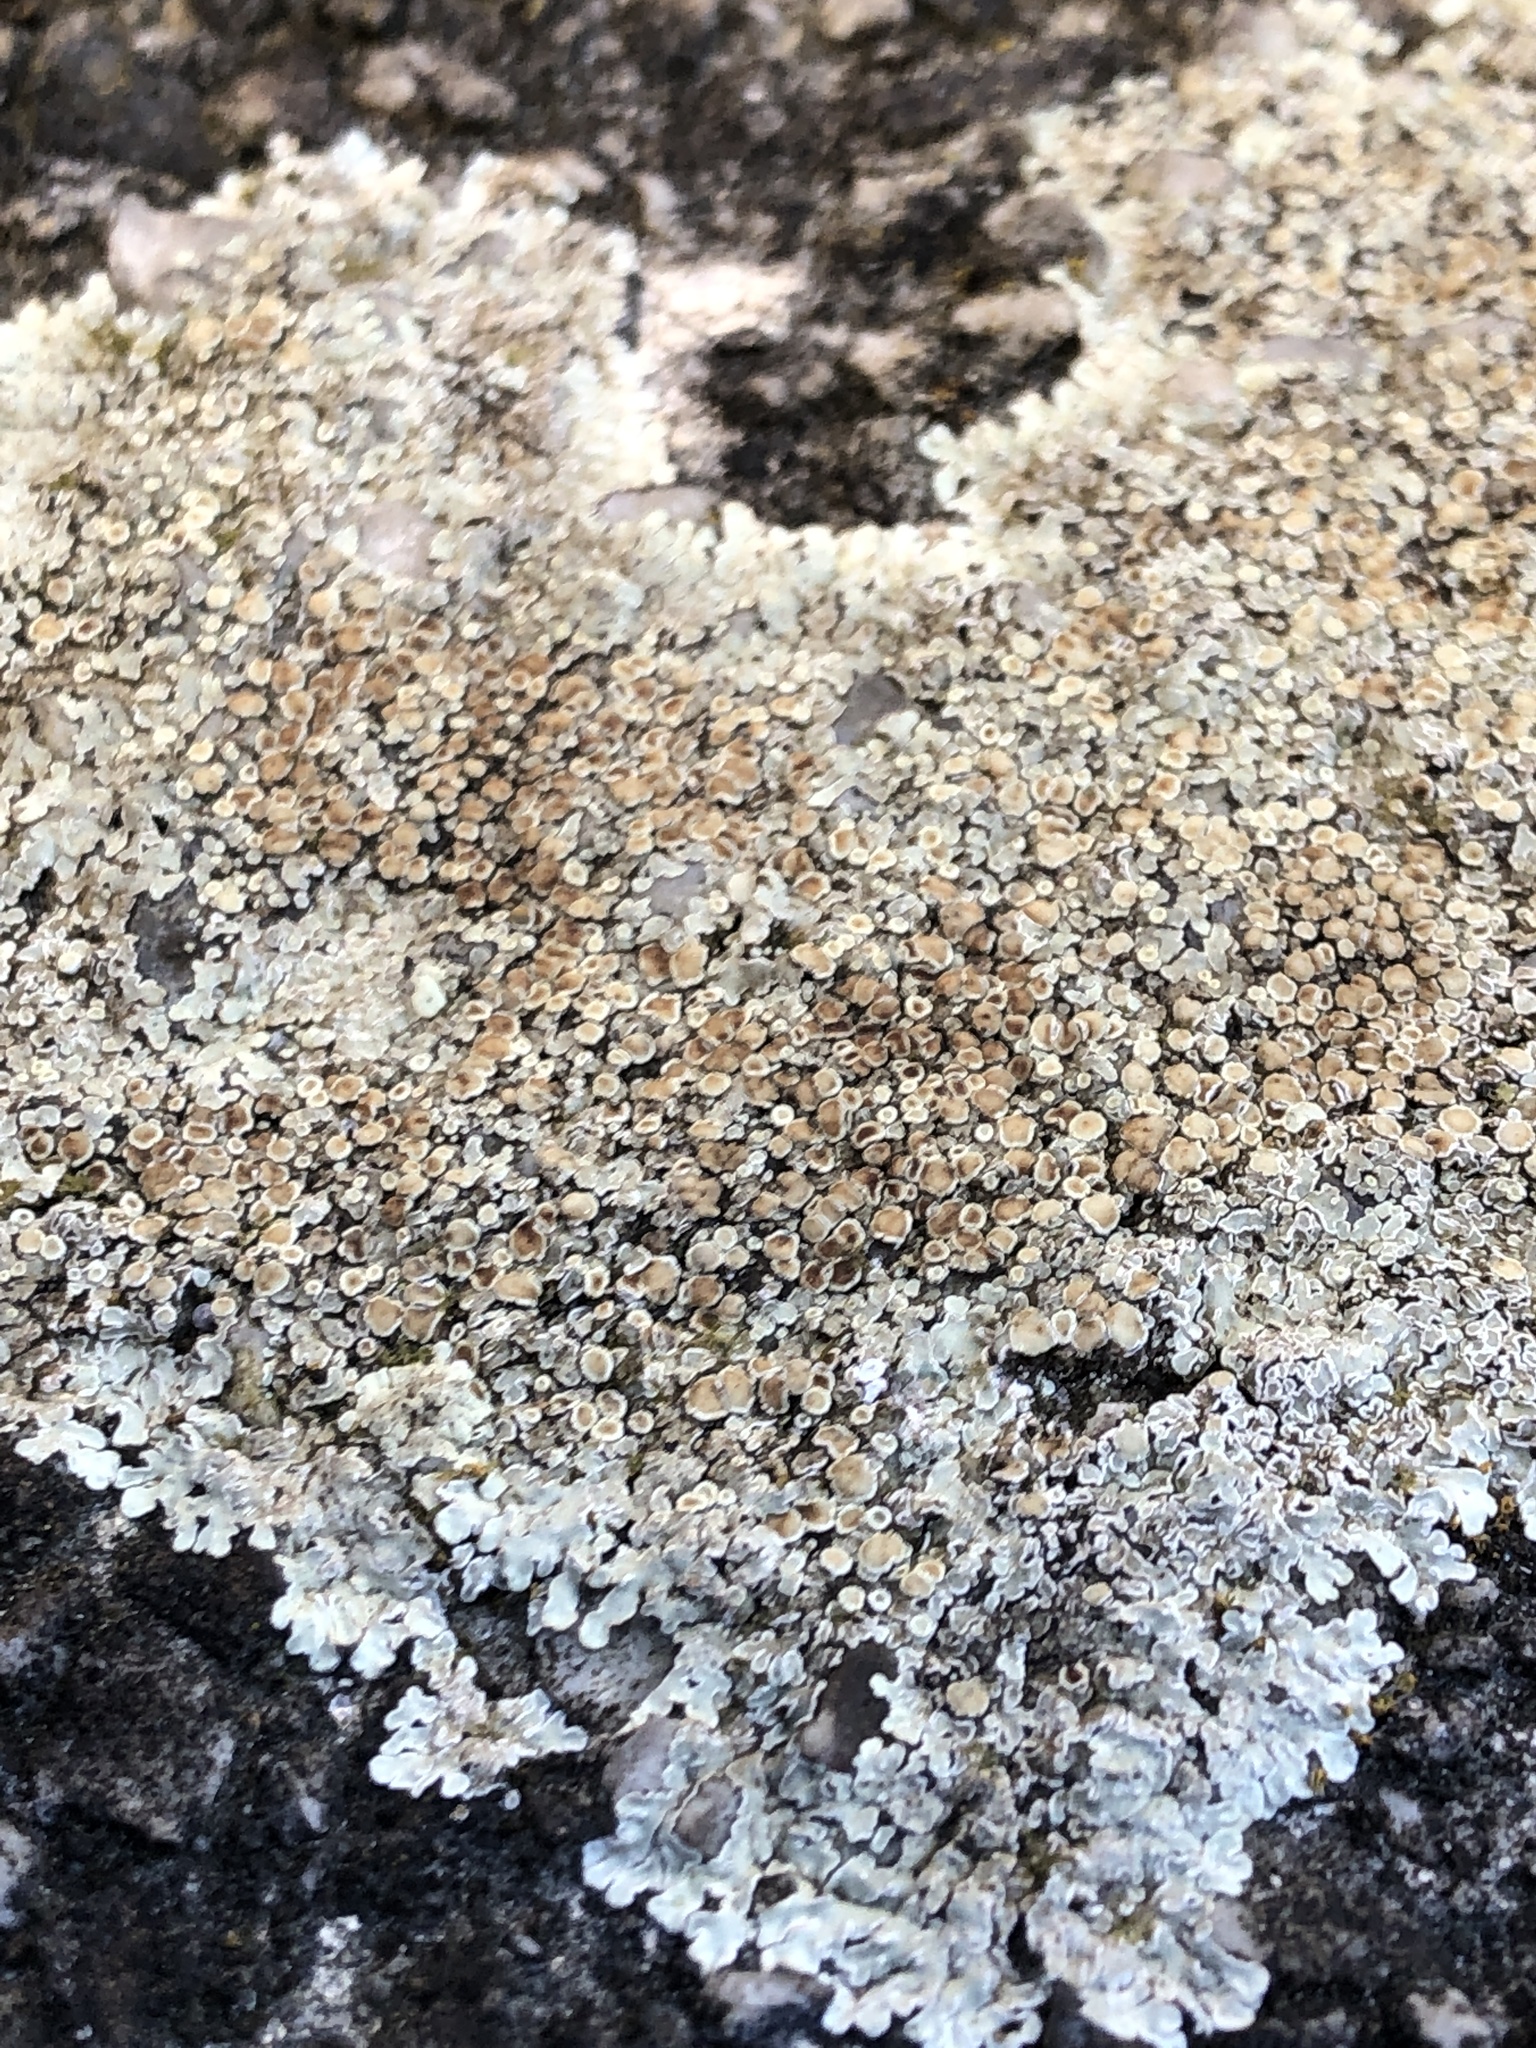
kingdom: Fungi
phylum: Ascomycota
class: Lecanoromycetes
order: Lecanorales
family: Lecanoraceae
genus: Protoparmeliopsis
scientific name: Protoparmeliopsis muralis
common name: Stonewall rim lichen
